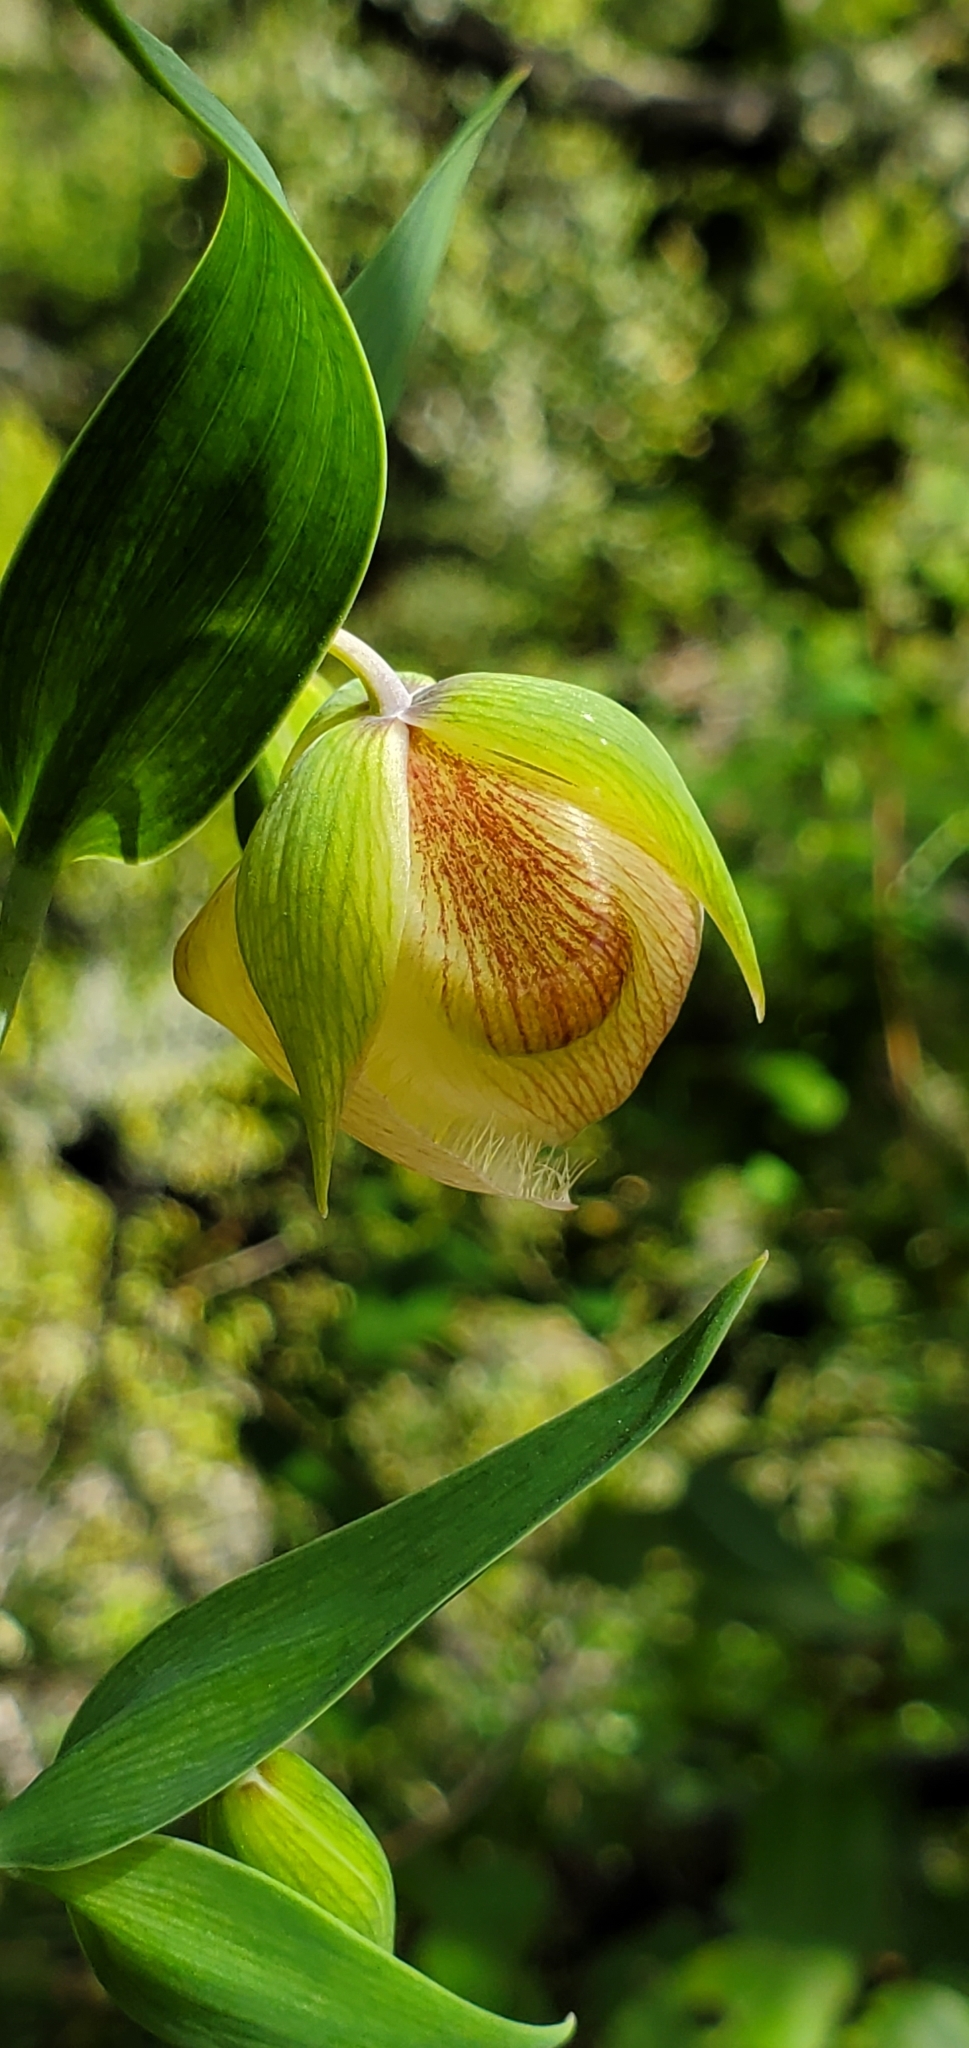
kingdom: Plantae
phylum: Tracheophyta
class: Liliopsida
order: Liliales
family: Liliaceae
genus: Calochortus
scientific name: Calochortus albus
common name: Fairy-lantern
